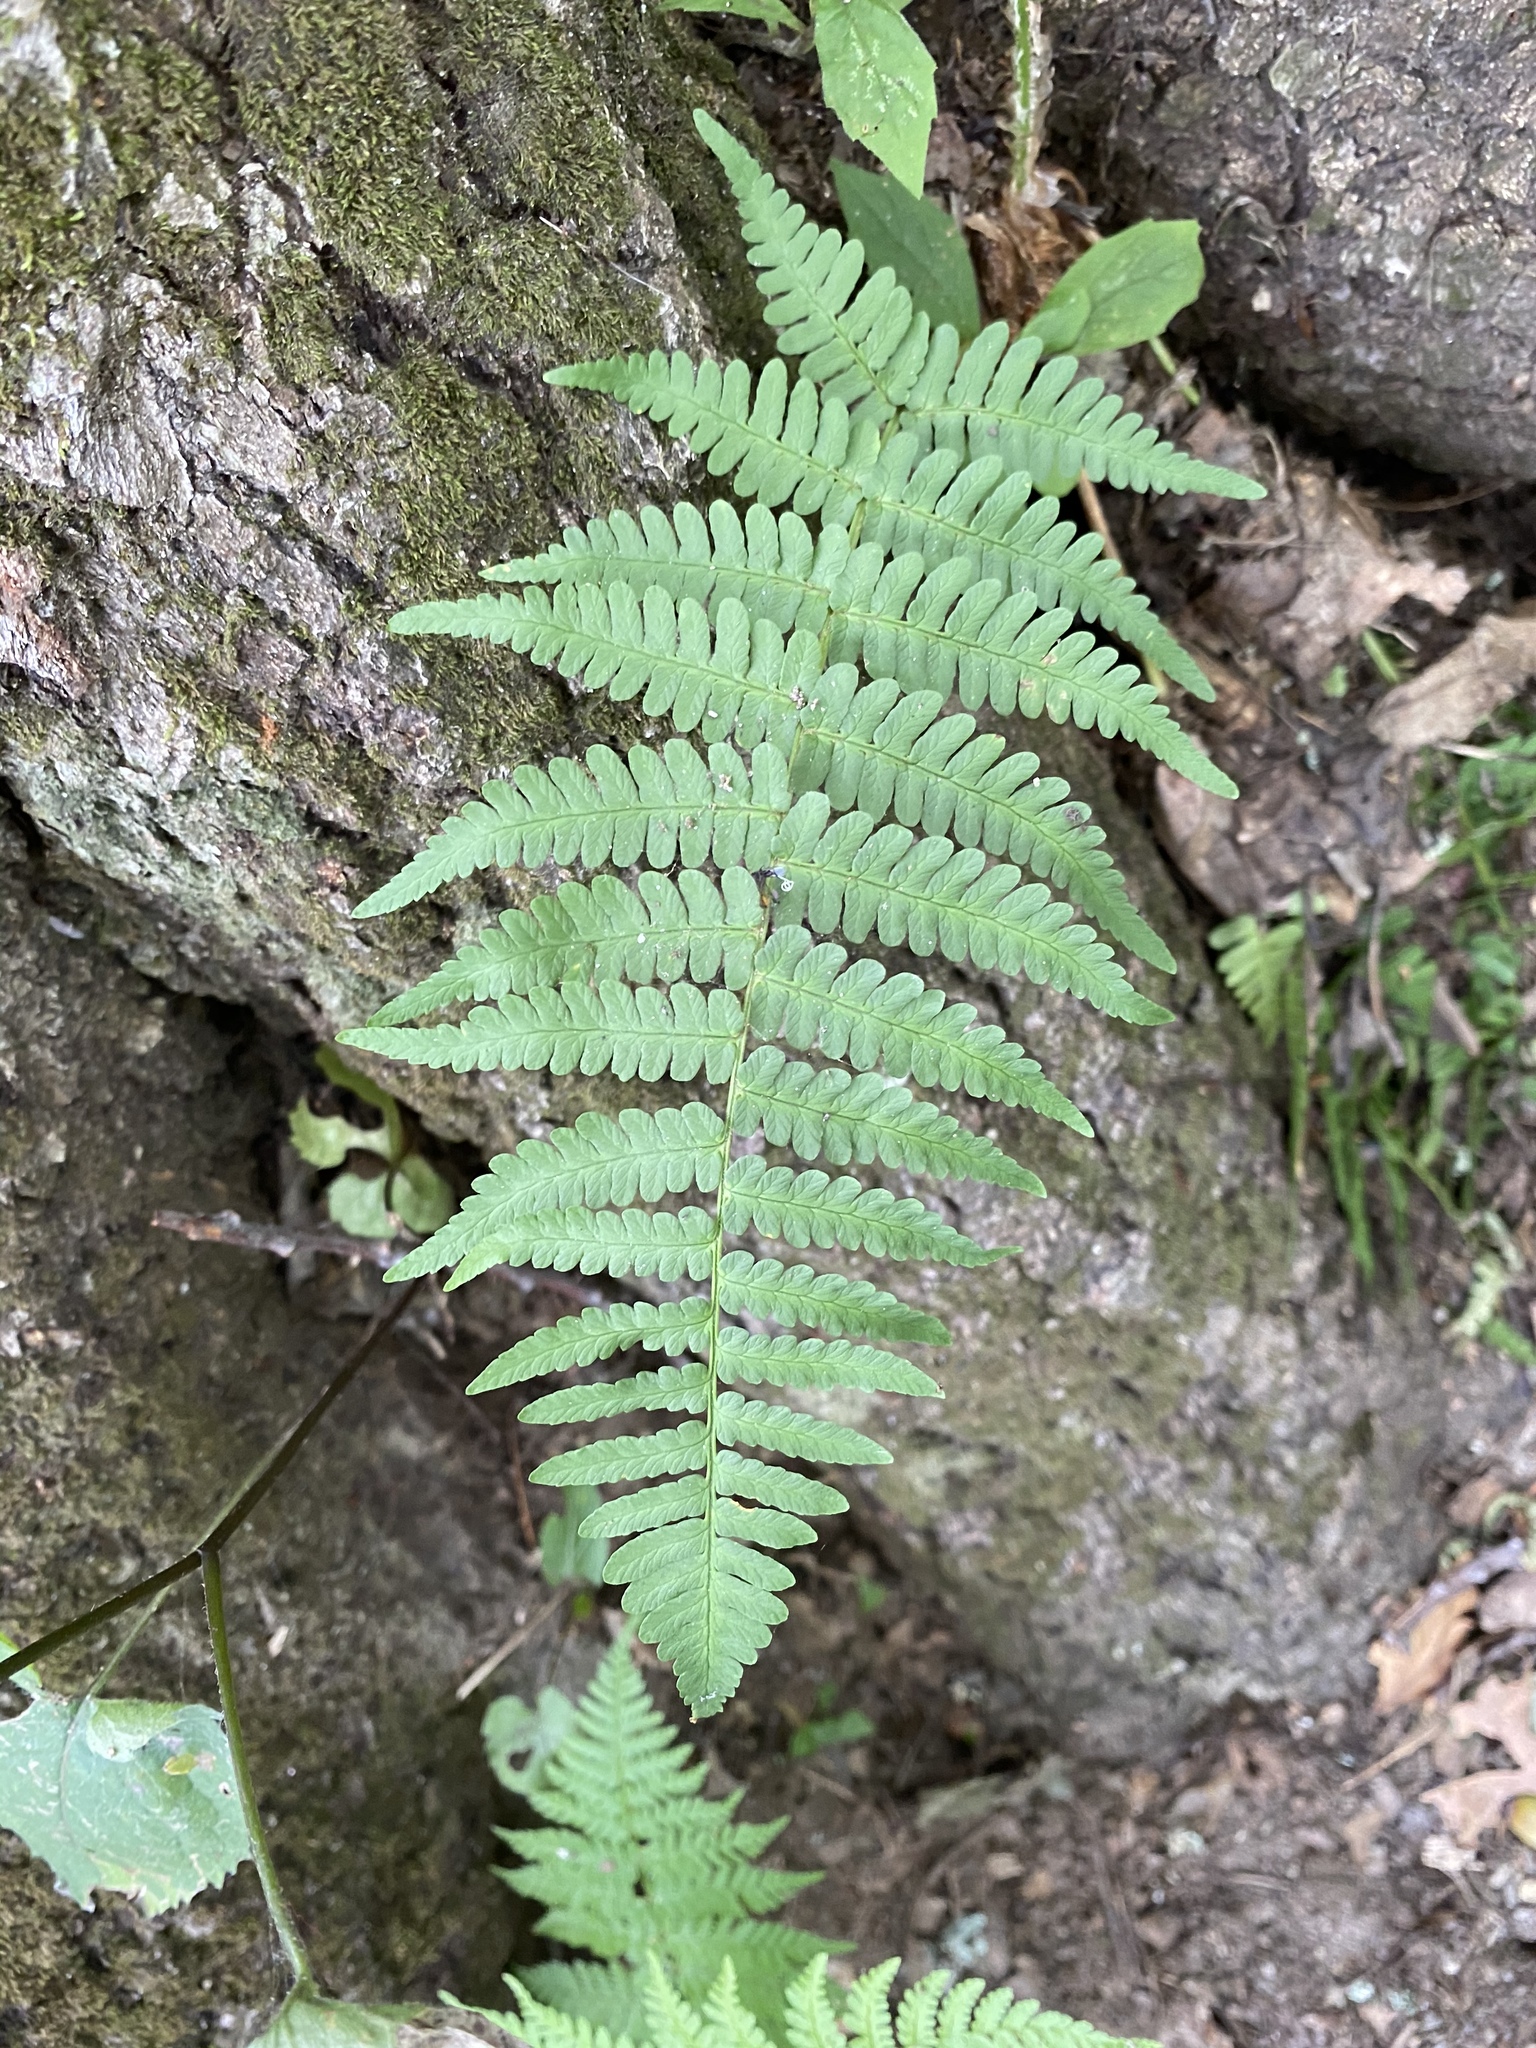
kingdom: Plantae
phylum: Tracheophyta
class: Polypodiopsida
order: Polypodiales
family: Dryopteridaceae
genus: Dryopteris
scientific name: Dryopteris marginalis
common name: Marginal wood fern
